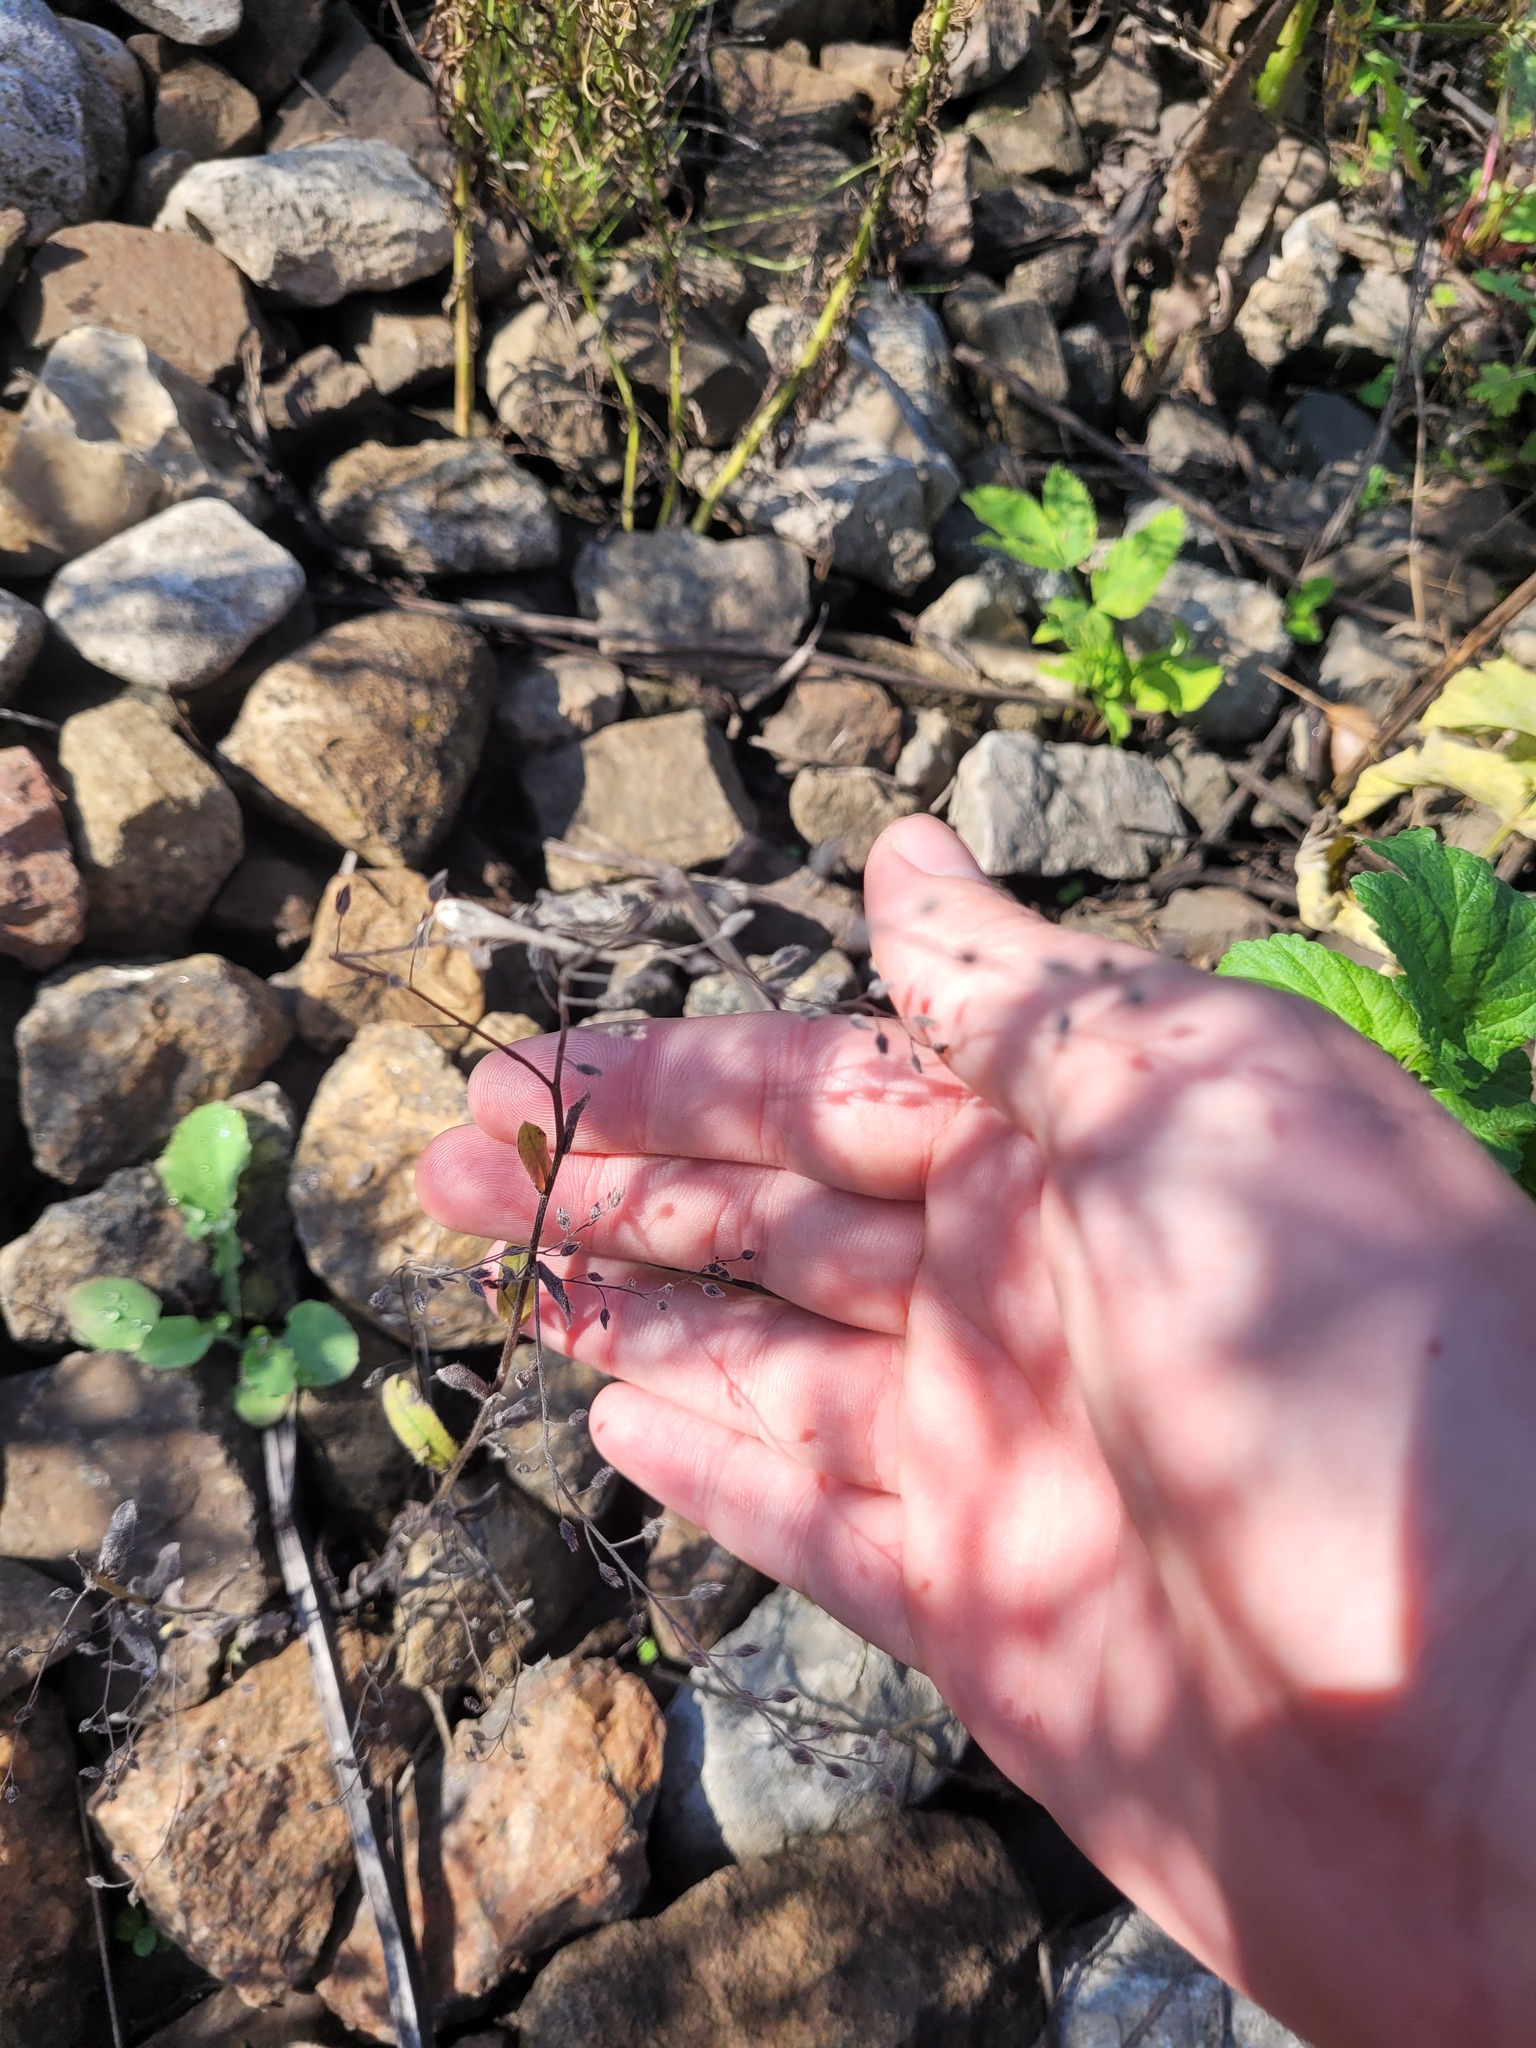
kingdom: Plantae
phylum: Tracheophyta
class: Magnoliopsida
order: Boraginales
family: Boraginaceae
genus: Myosotis
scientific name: Myosotis arvensis
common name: Field forget-me-not
